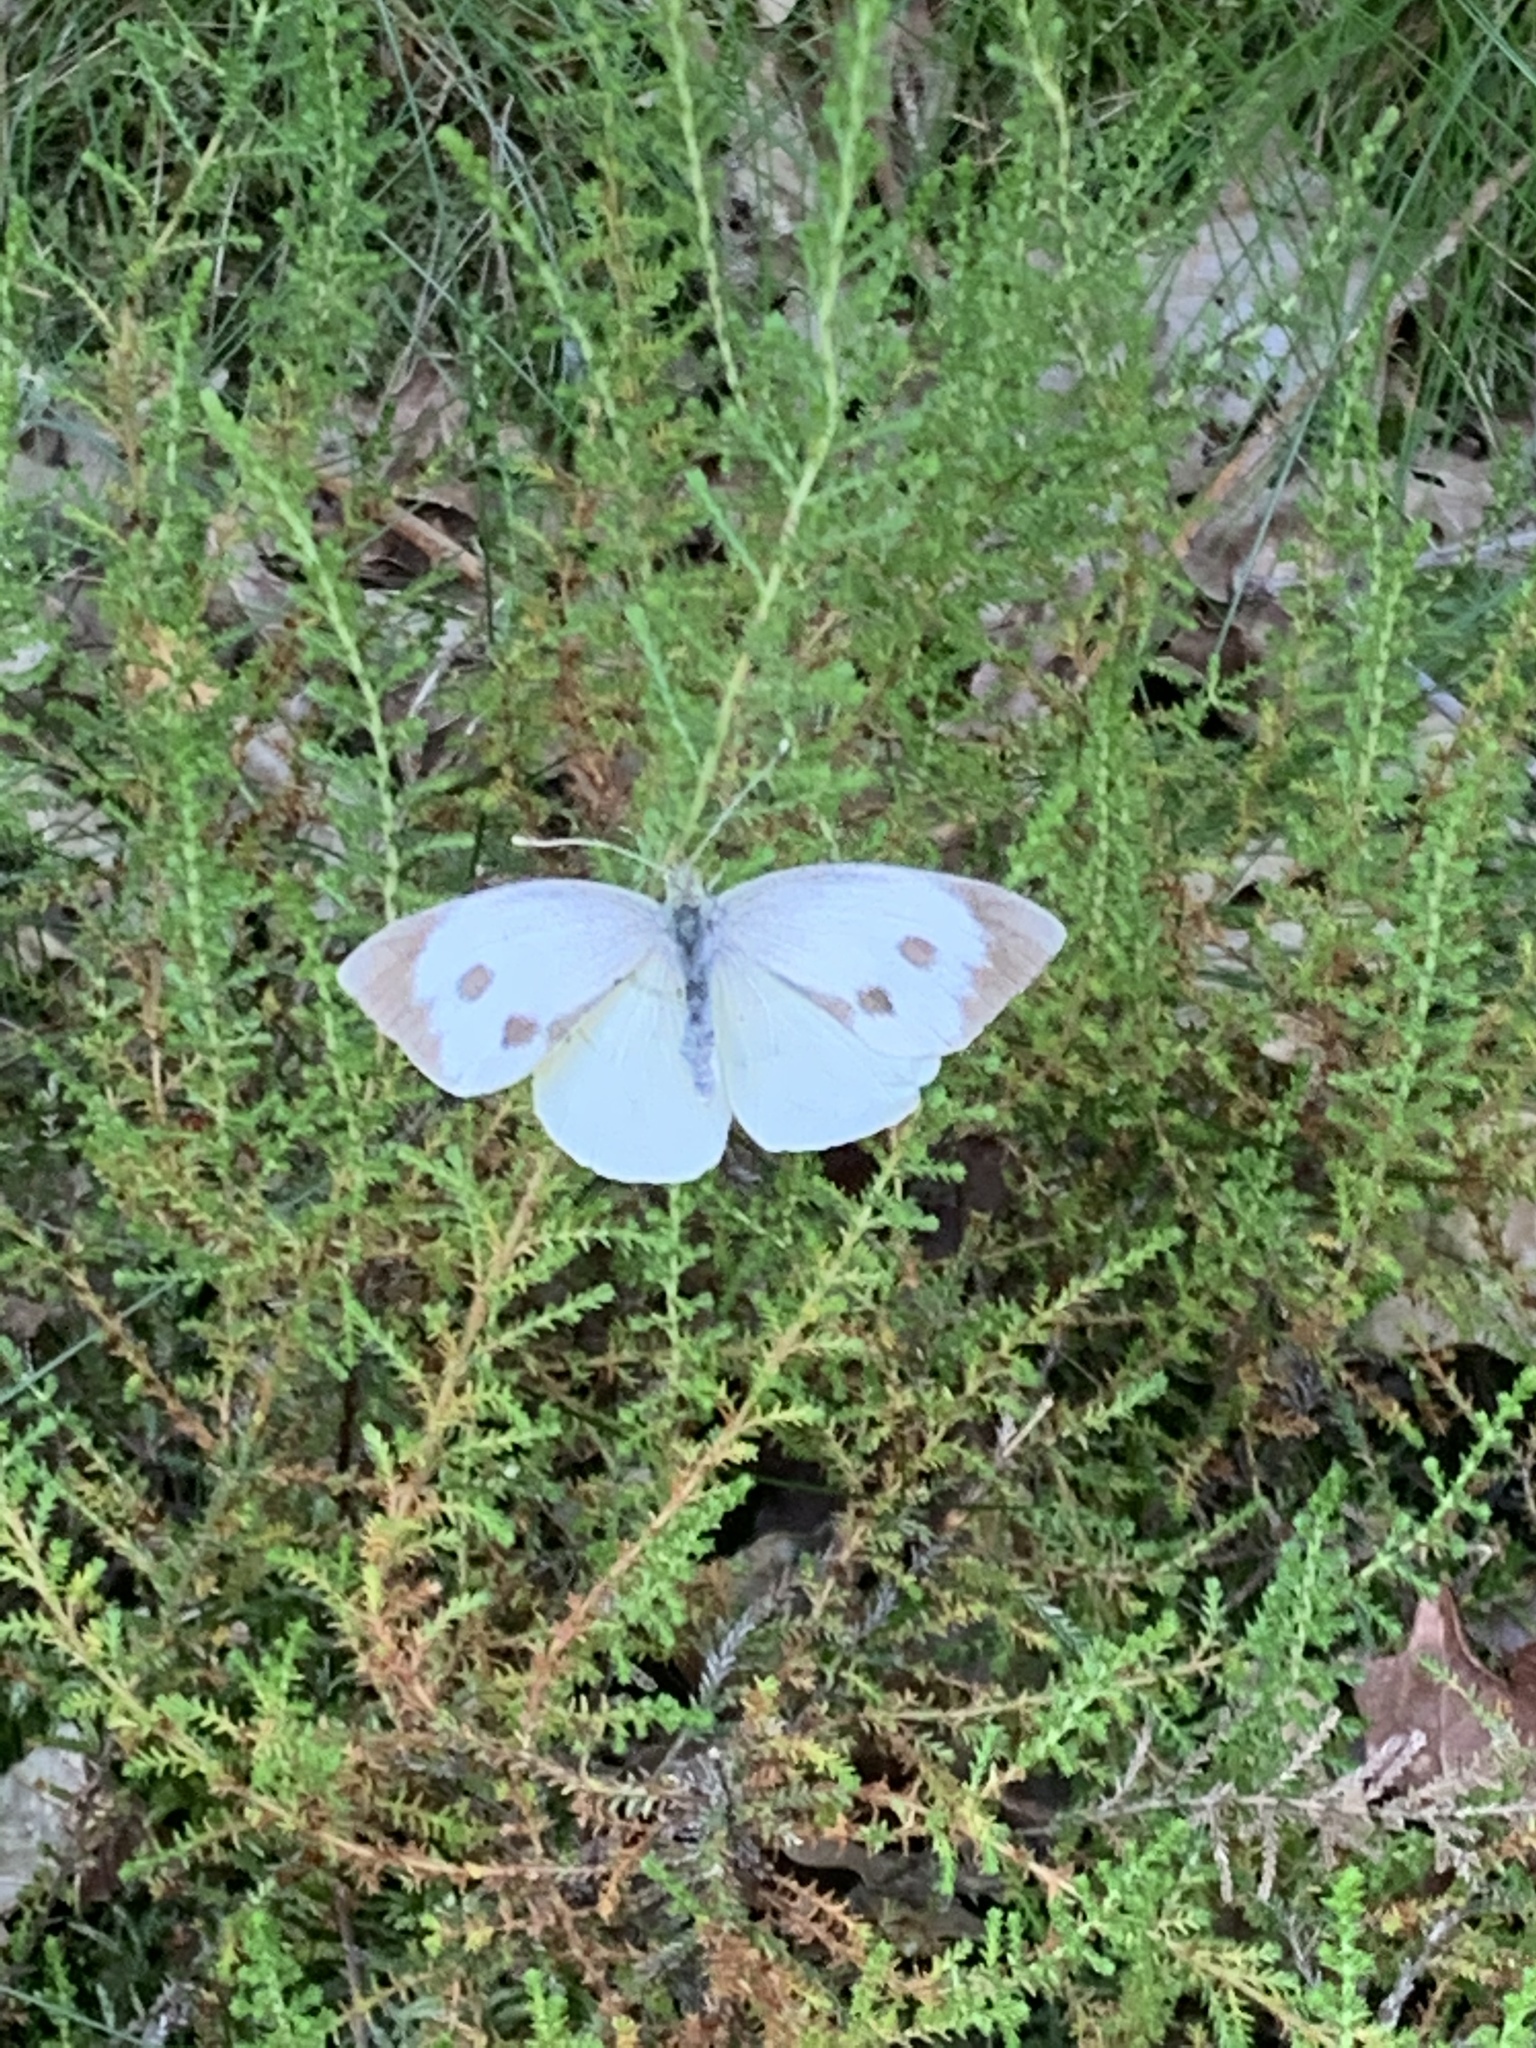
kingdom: Animalia
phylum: Arthropoda
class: Insecta
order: Lepidoptera
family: Pieridae
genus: Pieris
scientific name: Pieris brassicae
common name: Large white
